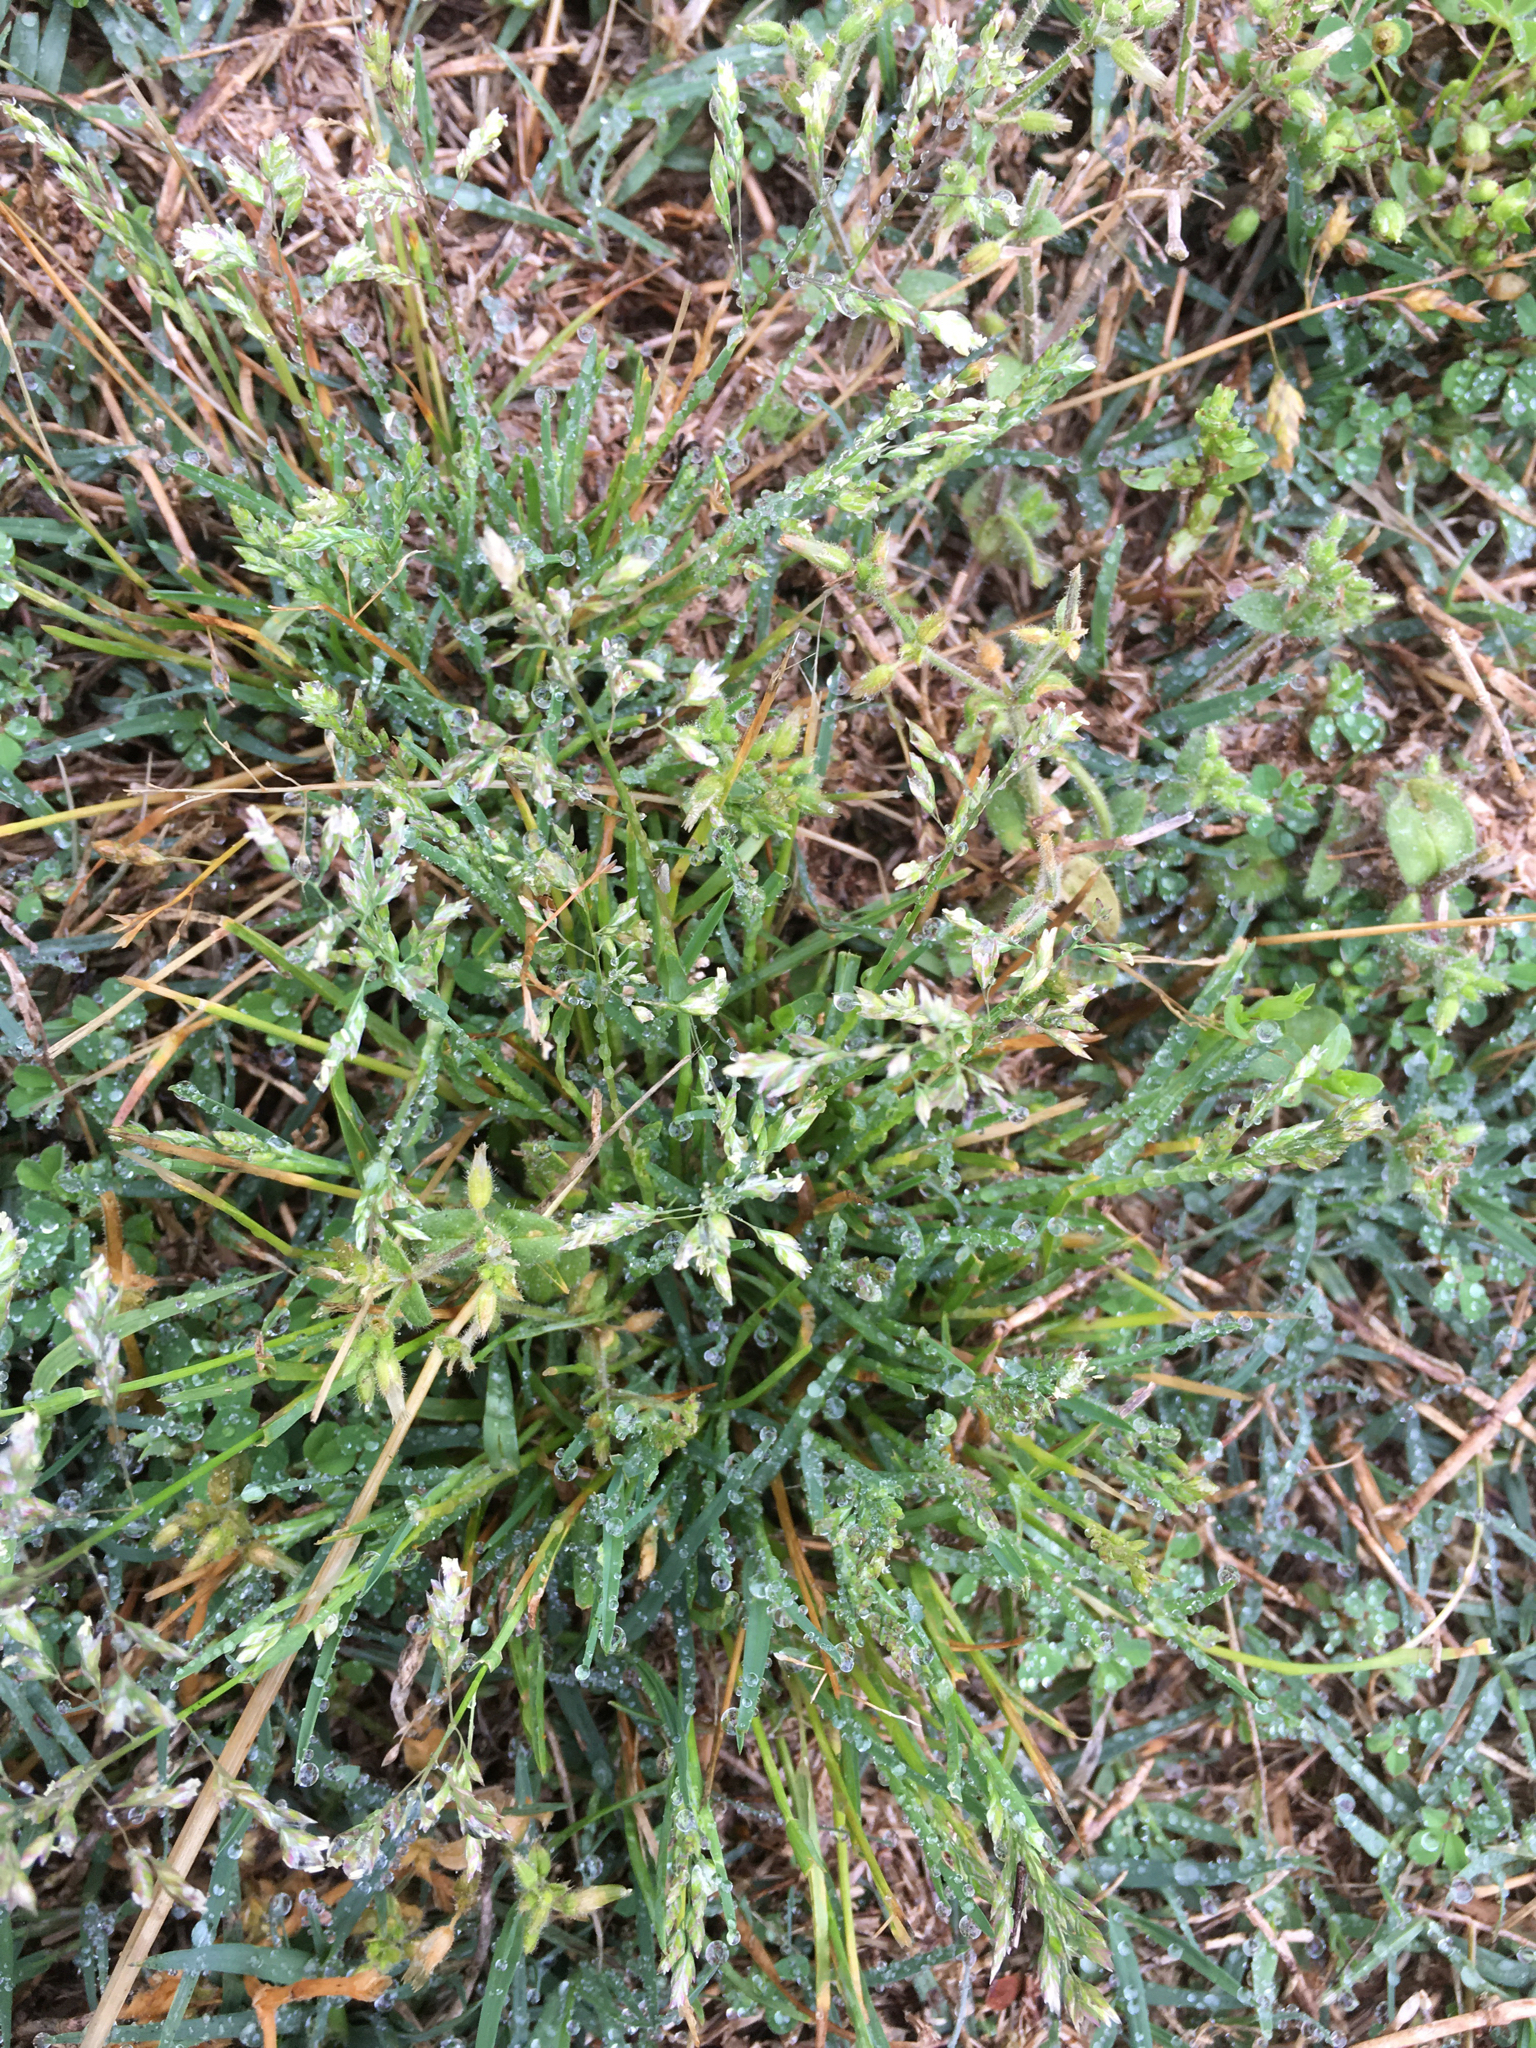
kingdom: Plantae
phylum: Tracheophyta
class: Liliopsida
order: Poales
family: Poaceae
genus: Poa
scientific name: Poa annua
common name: Annual bluegrass
